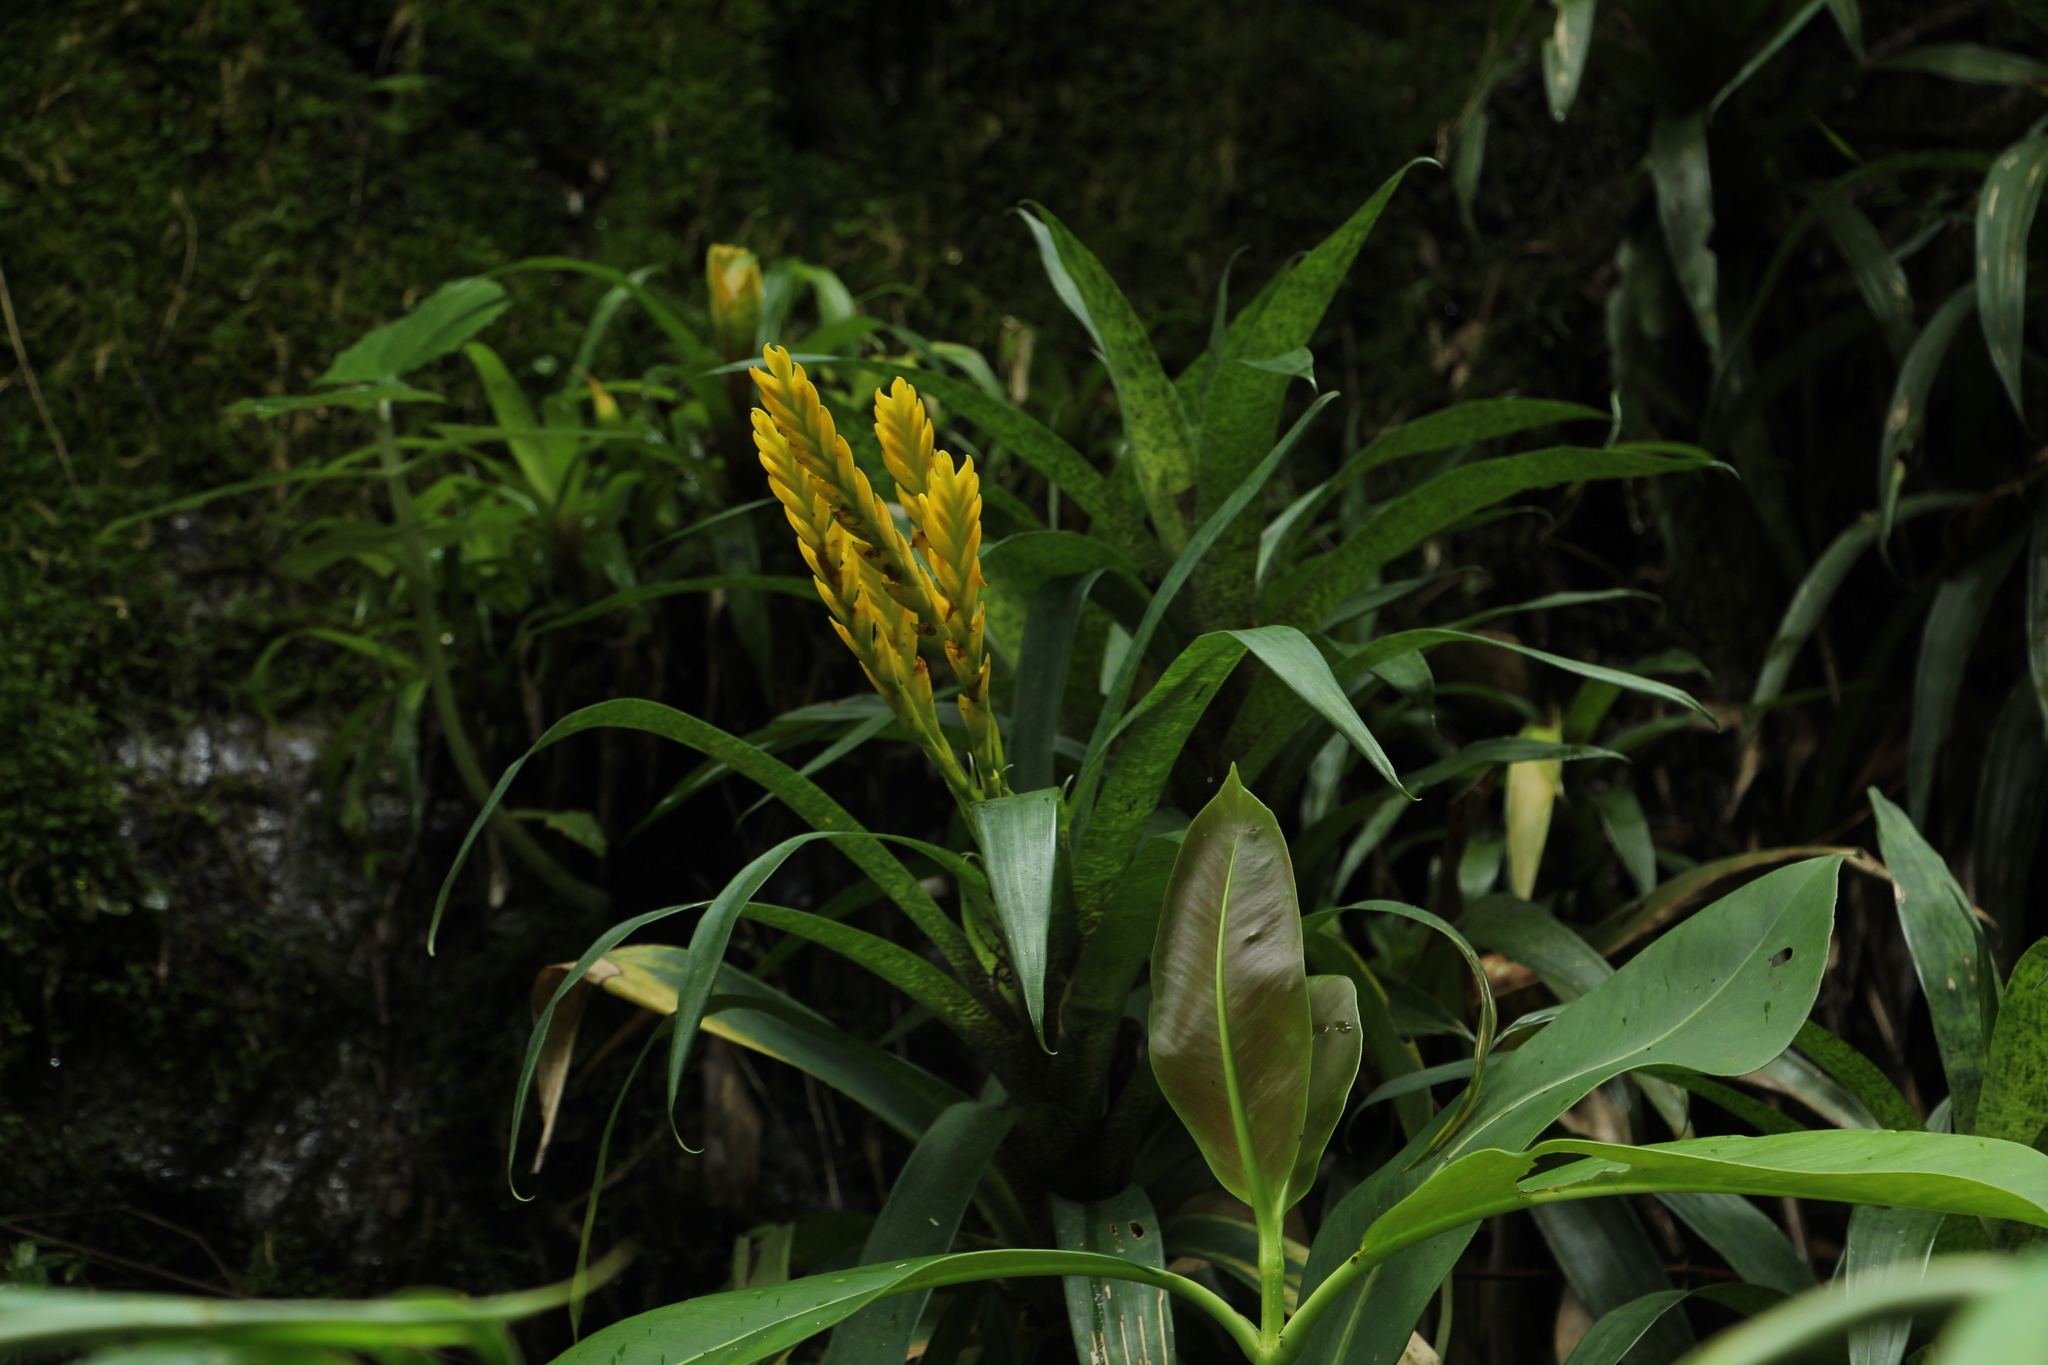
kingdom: Plantae
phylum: Tracheophyta
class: Liliopsida
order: Poales
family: Bromeliaceae
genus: Goudaea
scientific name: Goudaea ospinae
